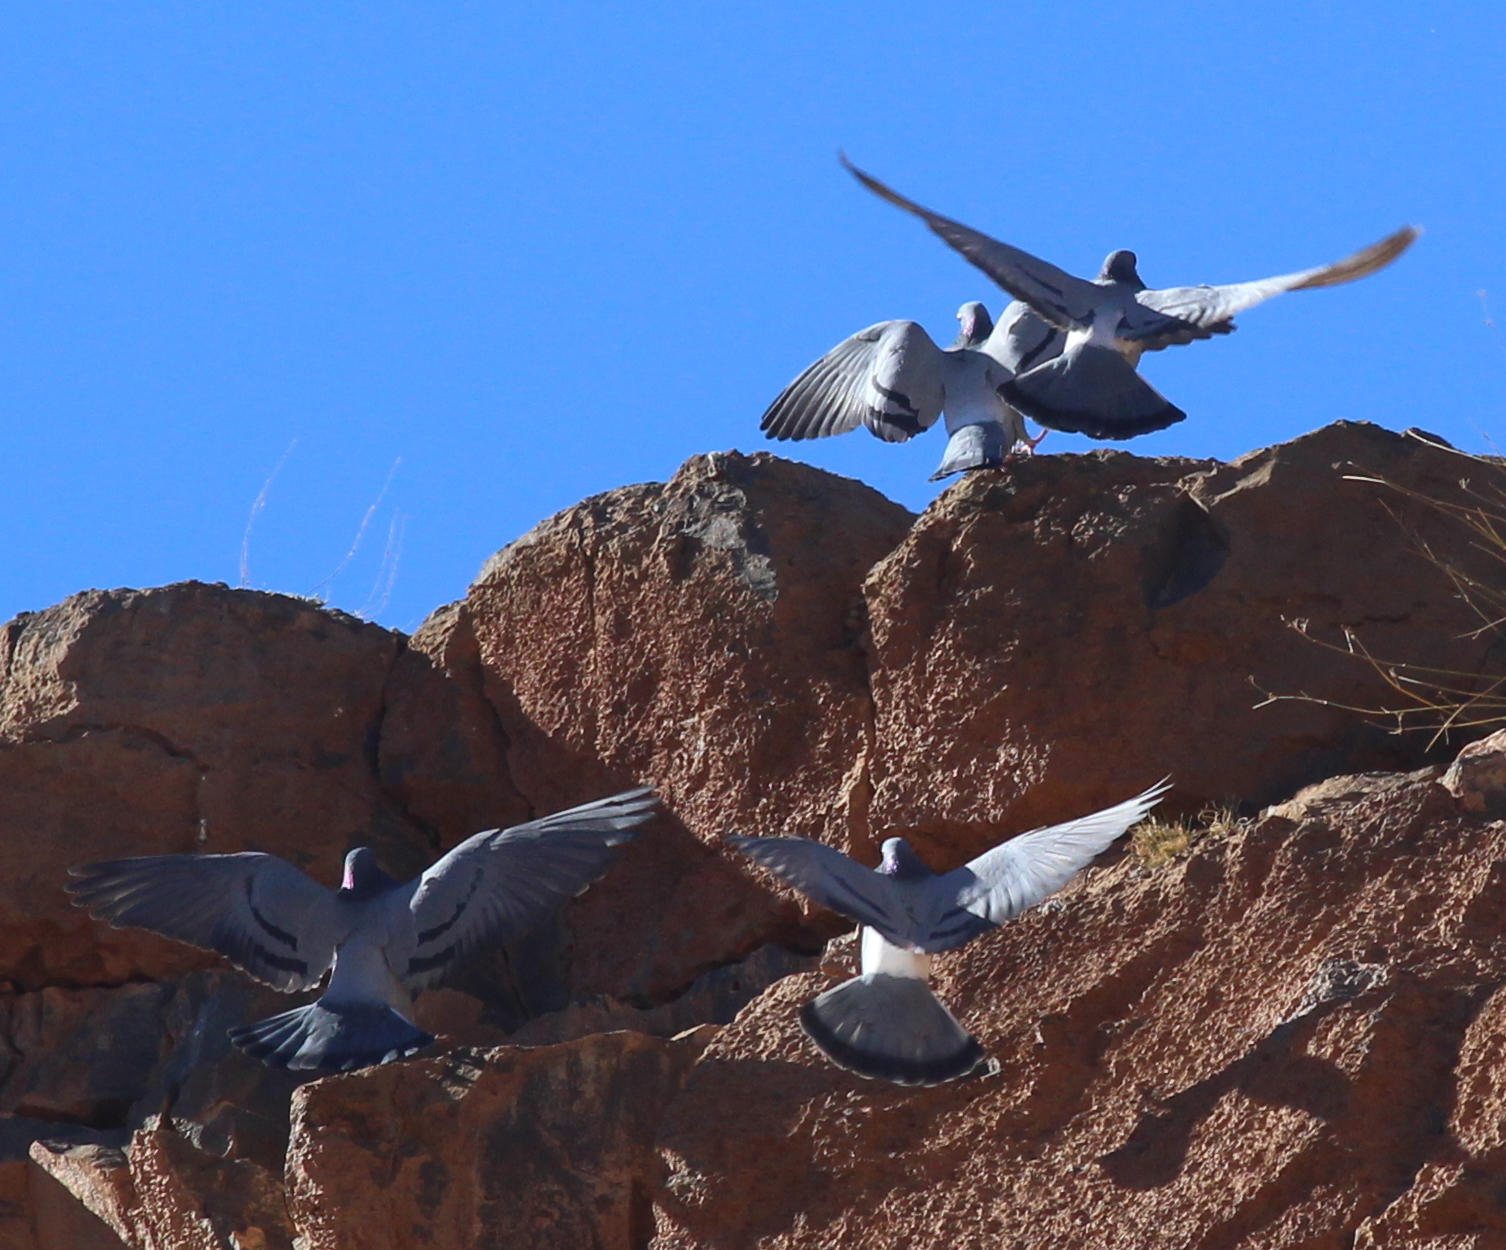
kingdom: Animalia
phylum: Chordata
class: Aves
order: Columbiformes
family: Columbidae
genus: Columba
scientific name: Columba livia
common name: Rock pigeon
